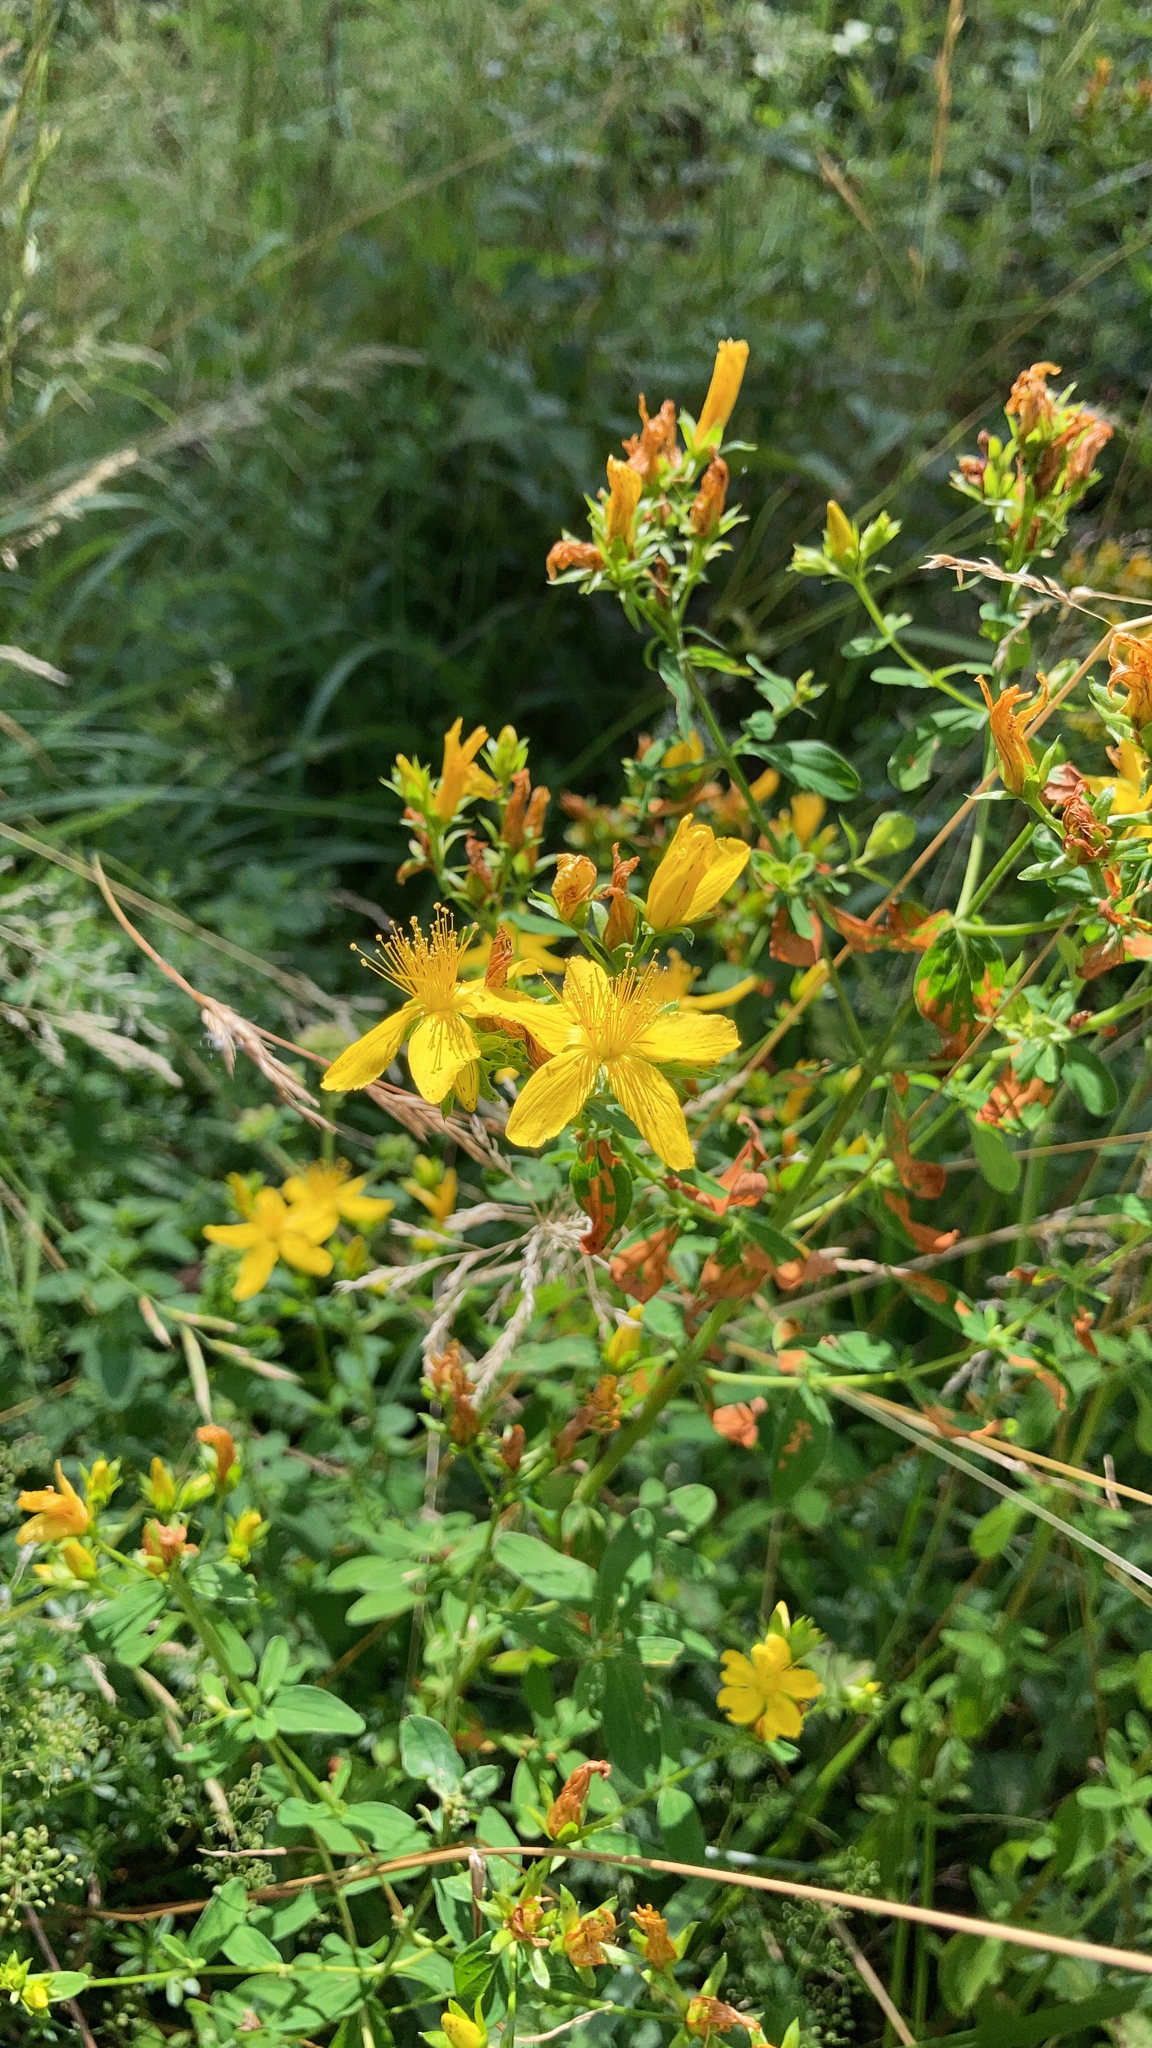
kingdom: Plantae
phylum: Tracheophyta
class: Magnoliopsida
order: Malpighiales
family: Hypericaceae
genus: Hypericum
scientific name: Hypericum perforatum
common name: Common st. johnswort
